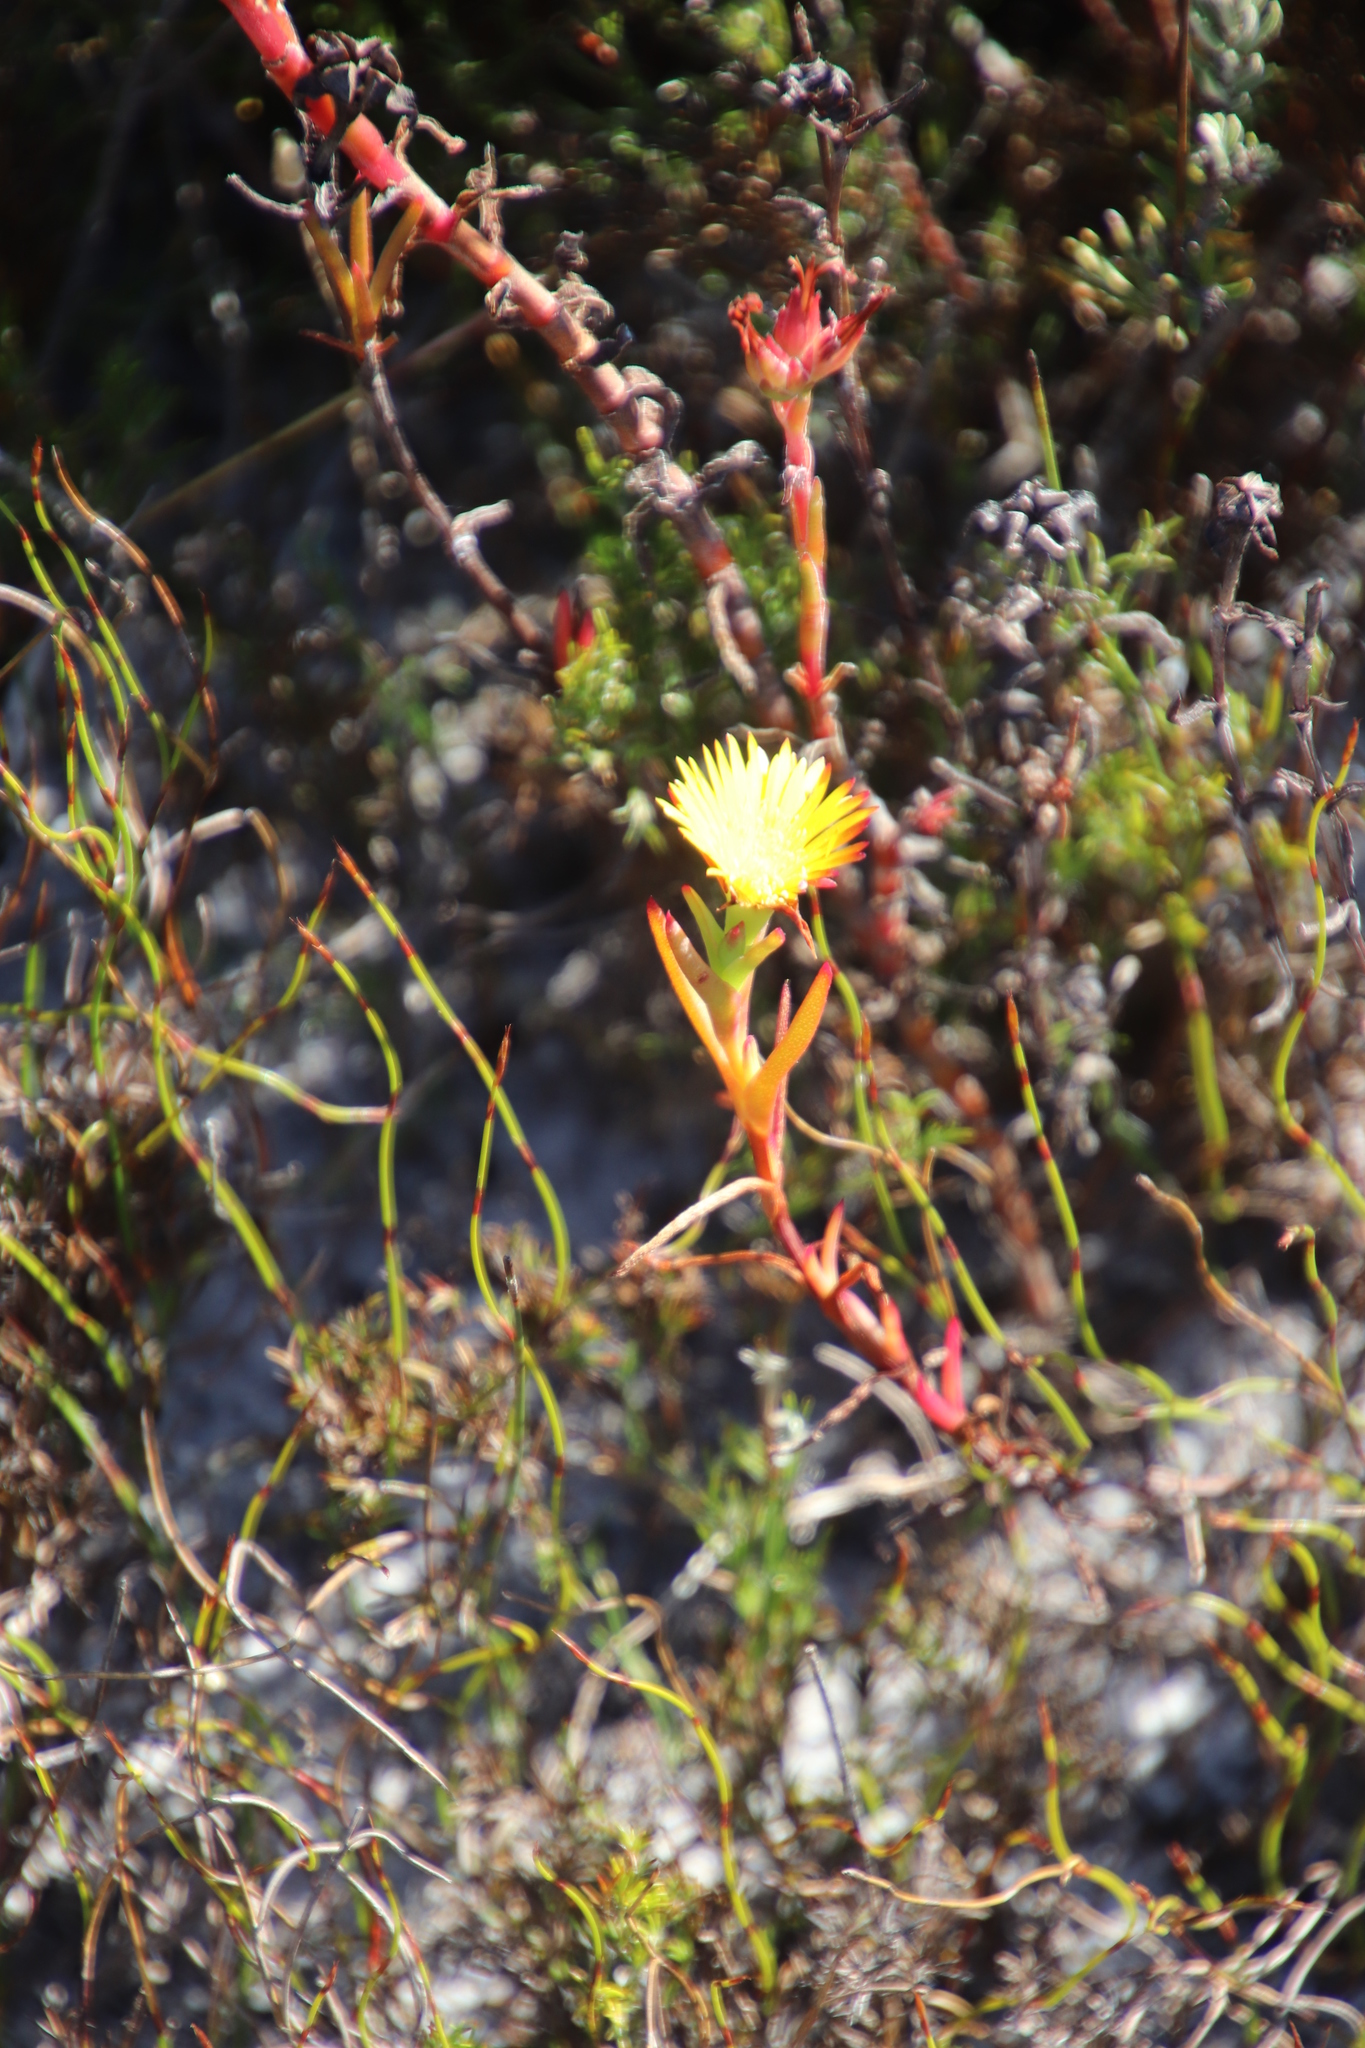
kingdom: Plantae
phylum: Tracheophyta
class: Magnoliopsida
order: Caryophyllales
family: Aizoaceae
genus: Lampranthus
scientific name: Lampranthus bicolor
